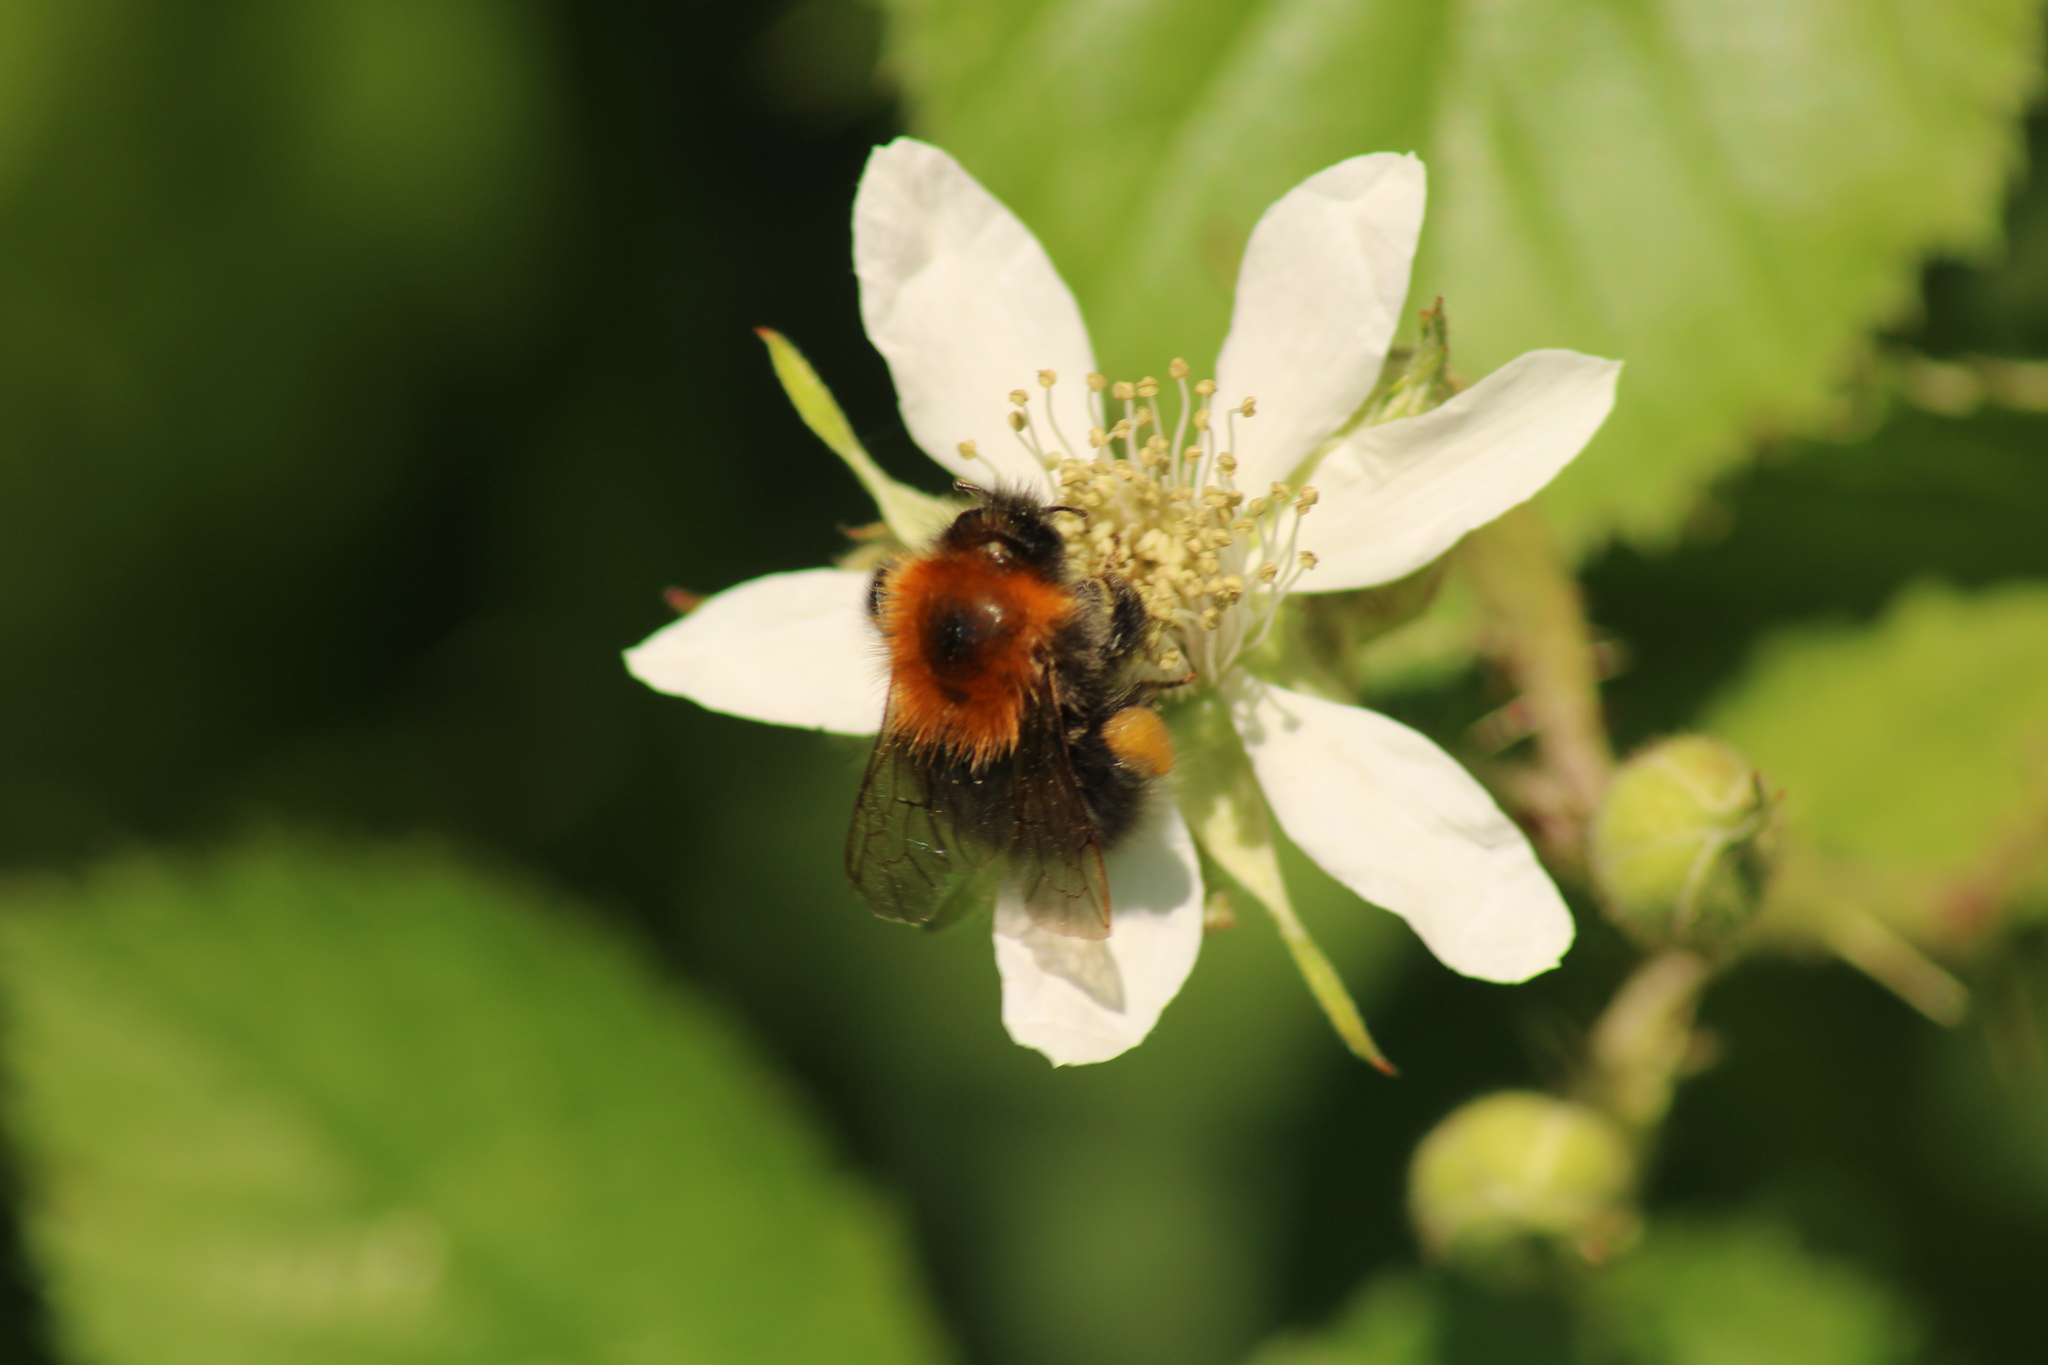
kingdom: Animalia
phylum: Arthropoda
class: Insecta
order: Hymenoptera
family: Apidae
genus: Bombus
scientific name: Bombus hypnorum
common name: New garden bumblebee
